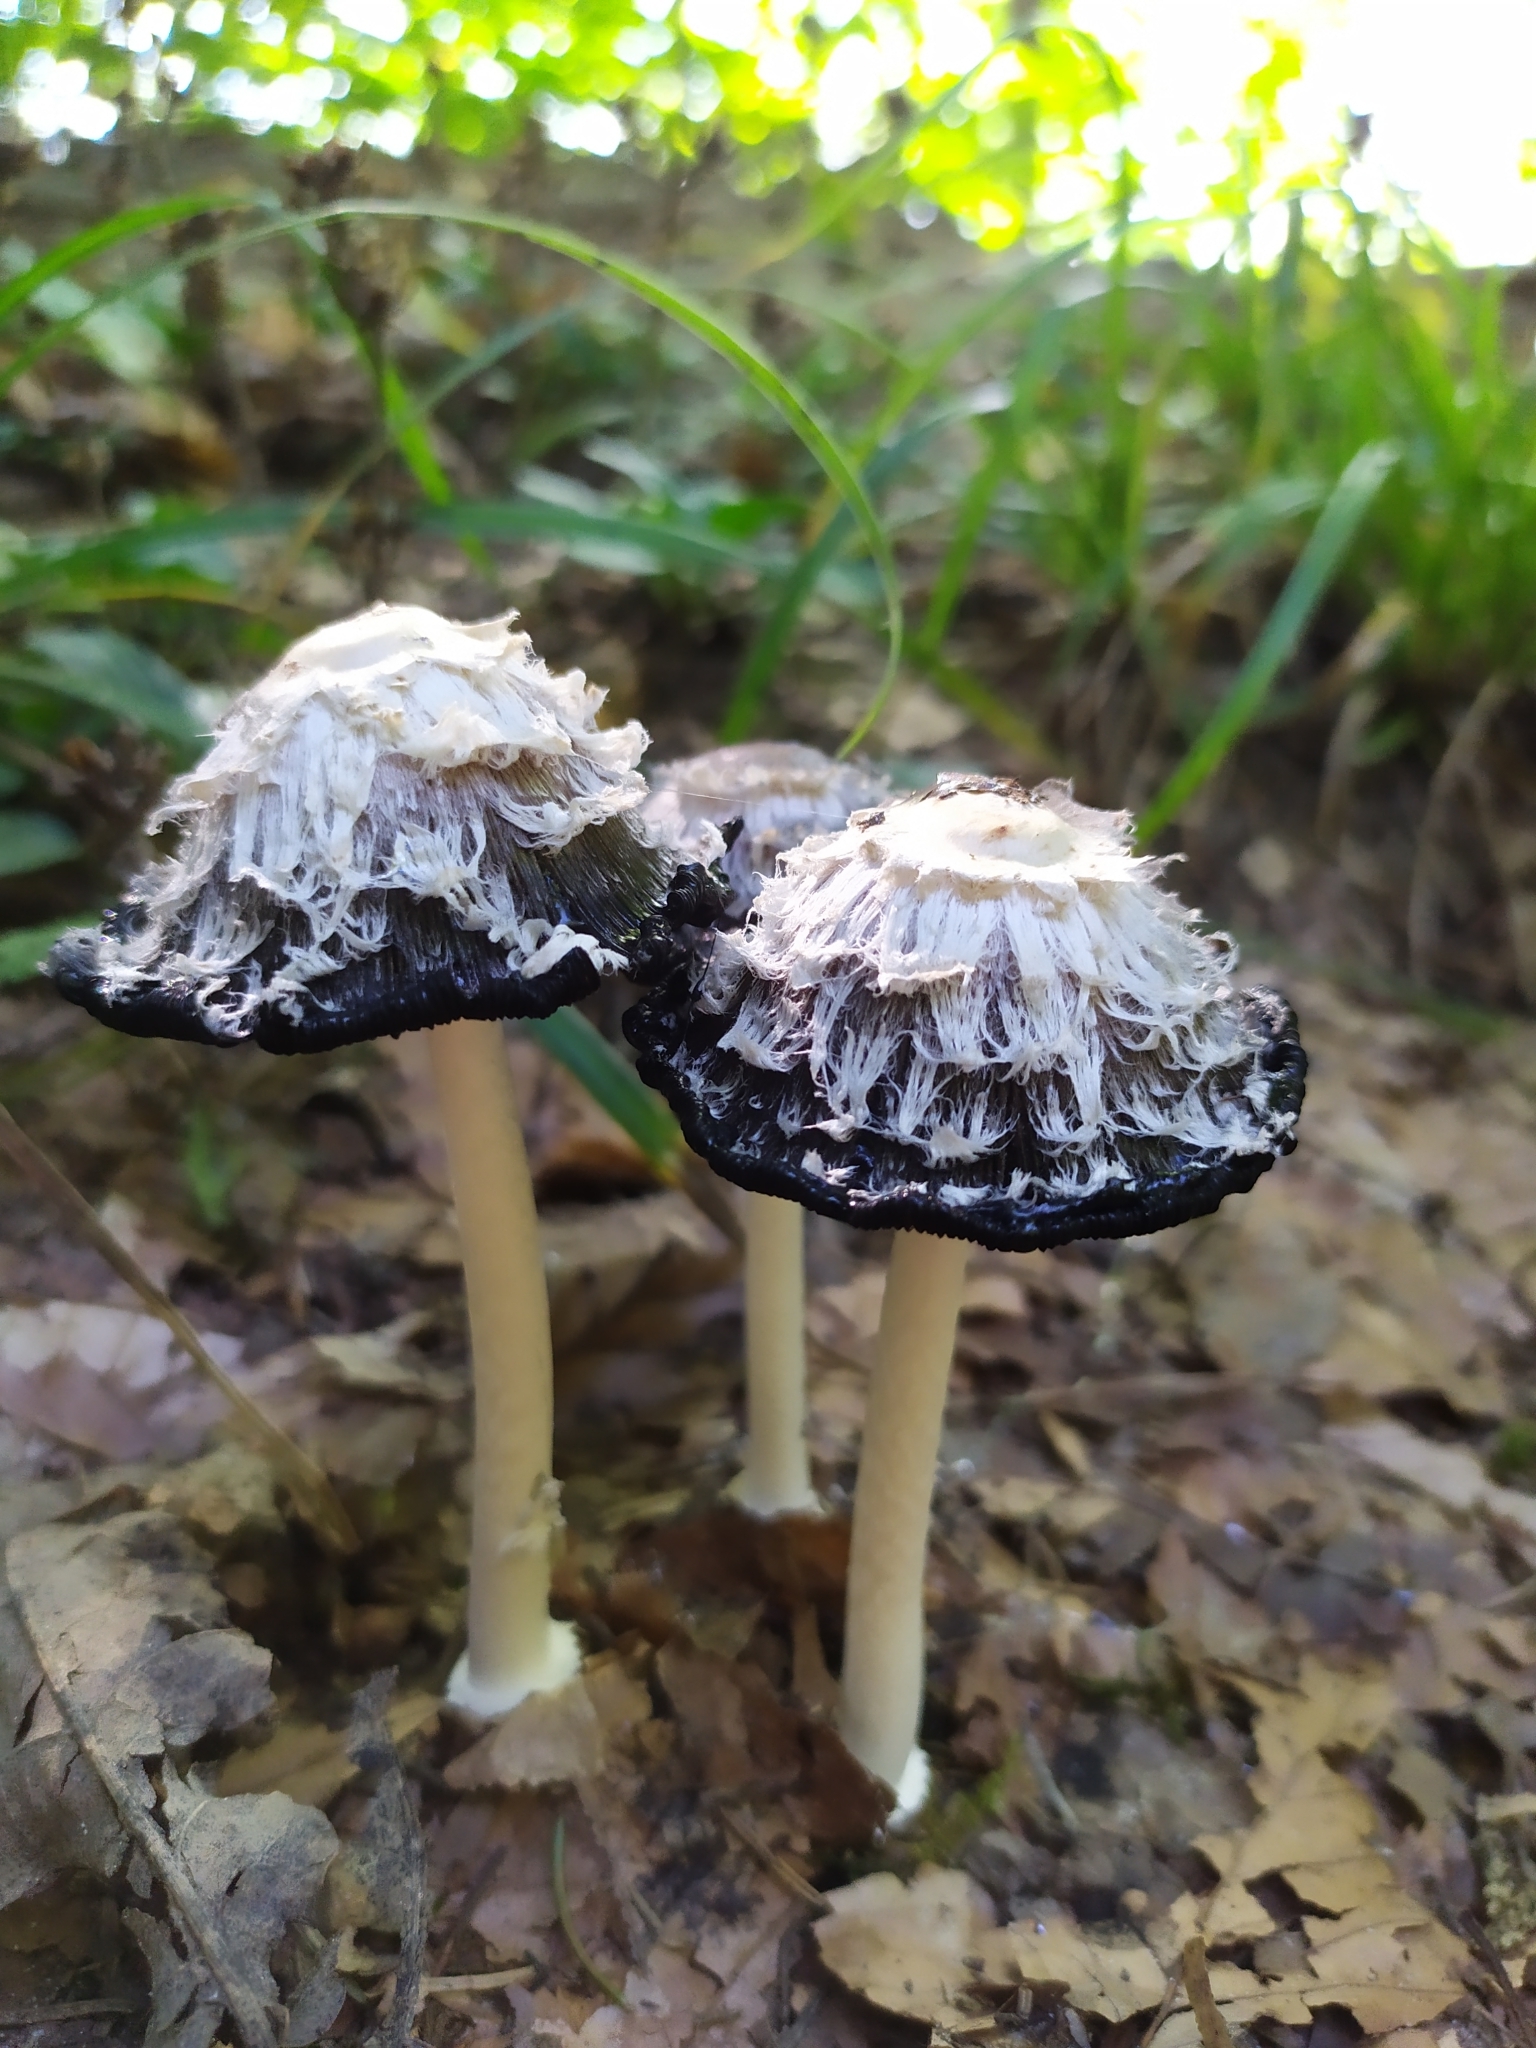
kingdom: Fungi
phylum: Basidiomycota
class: Agaricomycetes
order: Agaricales
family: Agaricaceae
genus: Coprinus
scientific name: Coprinus comatus
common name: Lawyer's wig
